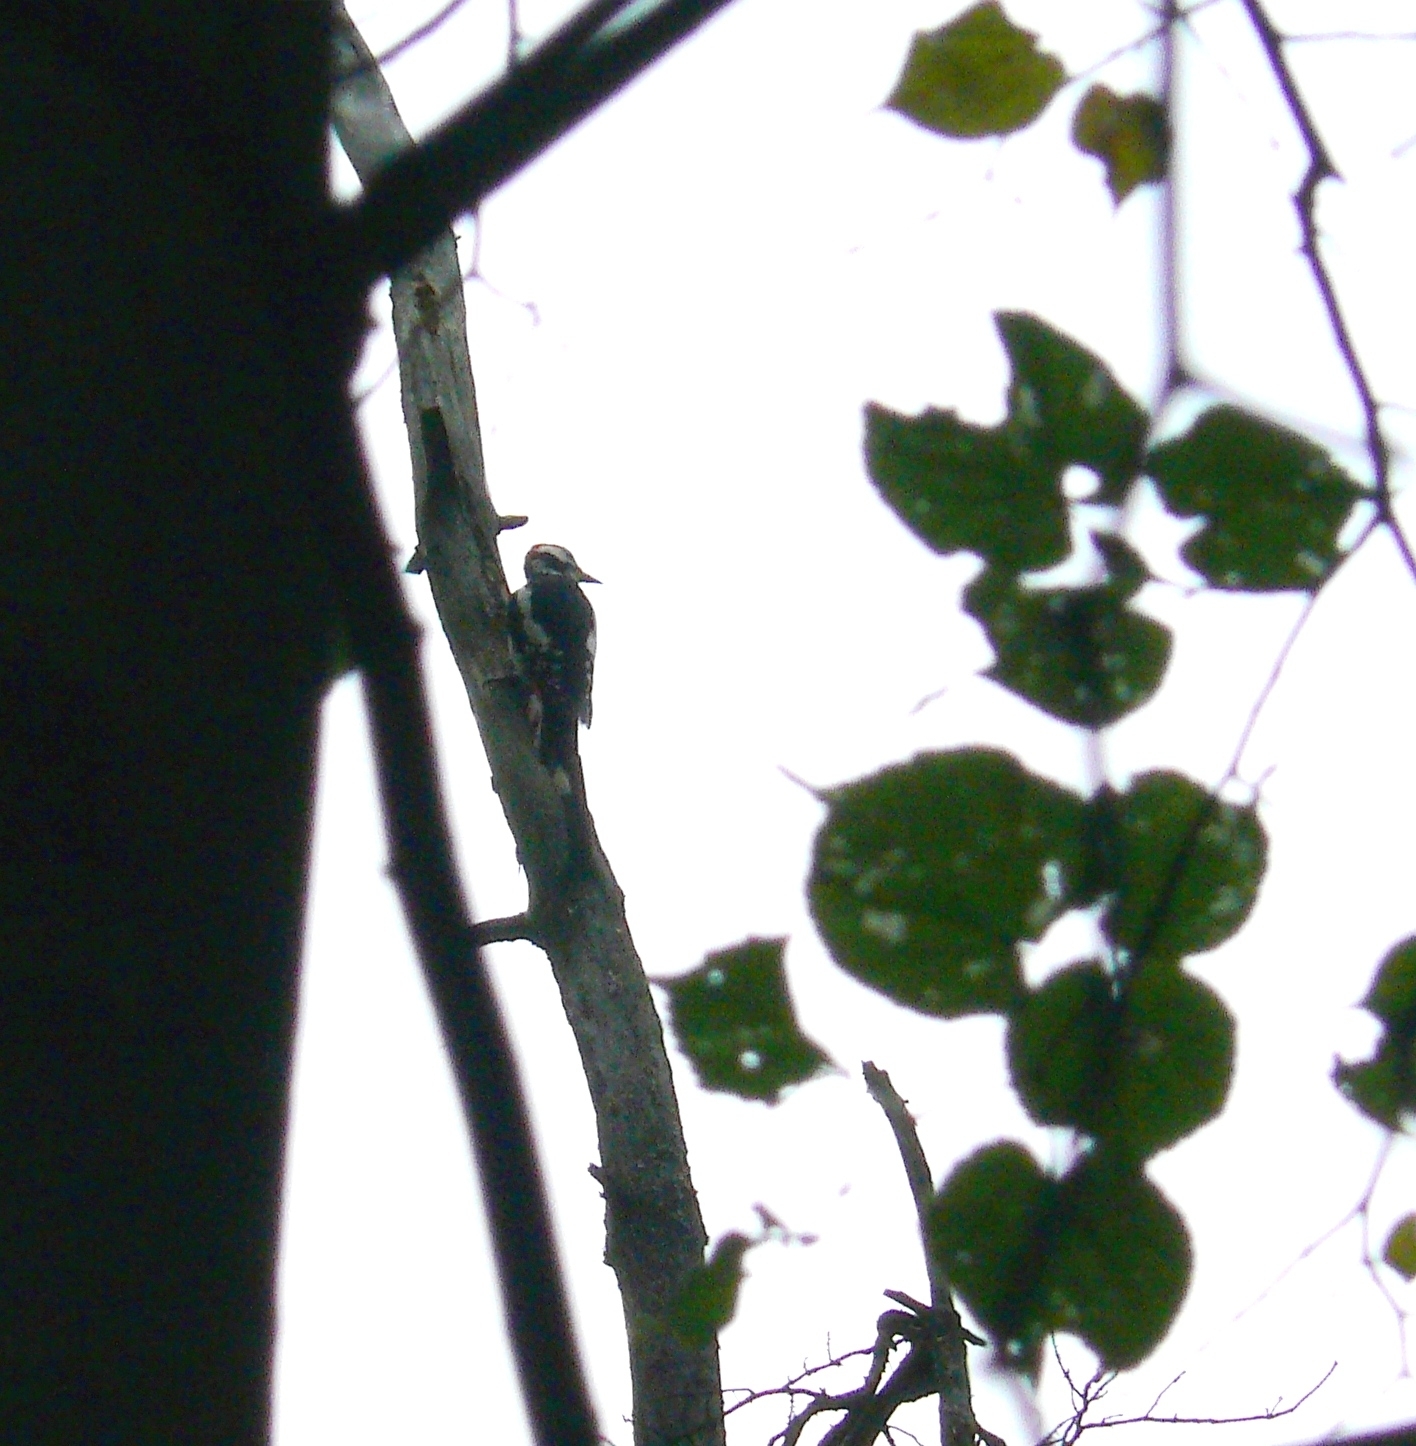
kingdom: Animalia
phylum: Chordata
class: Aves
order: Piciformes
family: Picidae
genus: Dendrocopos
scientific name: Dendrocopos major
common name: Great spotted woodpecker
